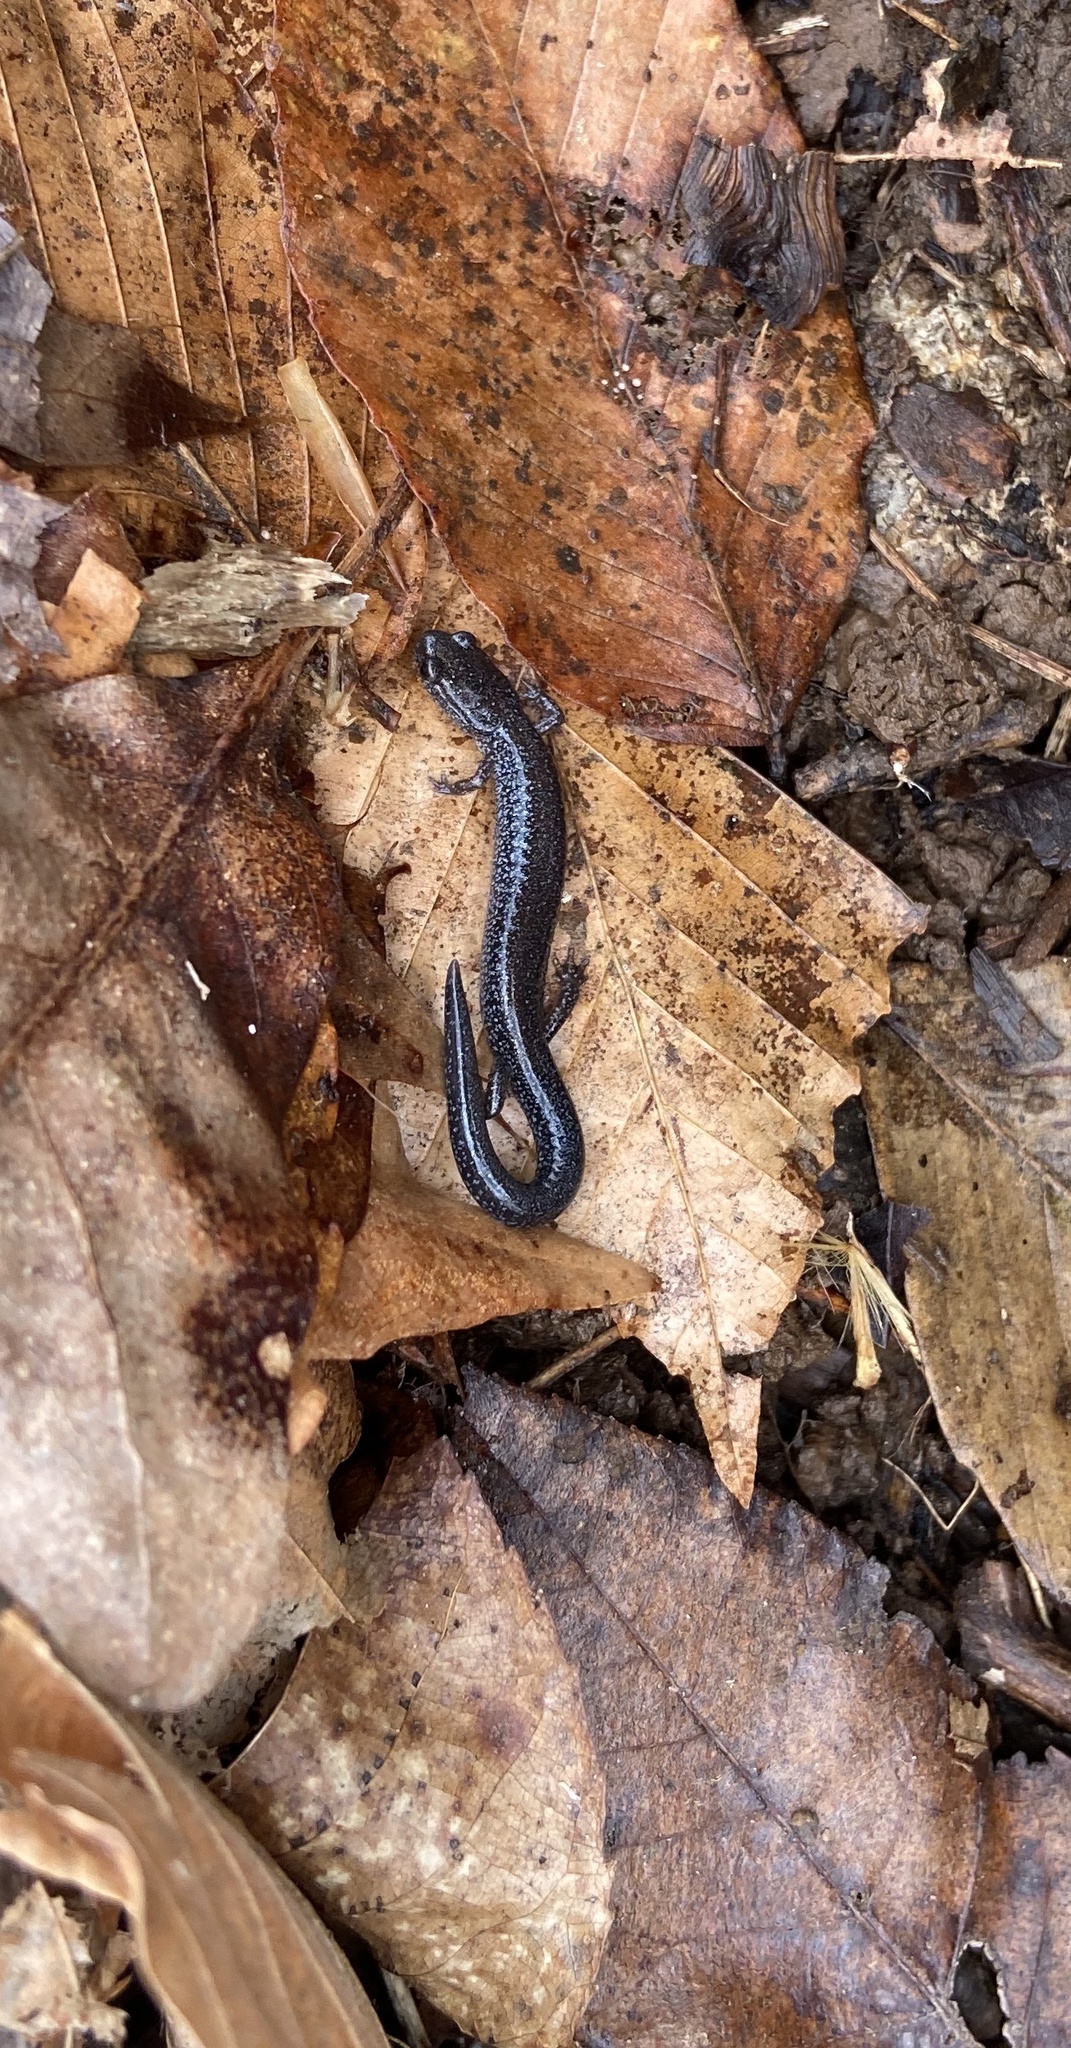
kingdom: Animalia
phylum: Chordata
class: Amphibia
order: Caudata
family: Plethodontidae
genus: Plethodon
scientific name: Plethodon cinereus
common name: Redback salamander
